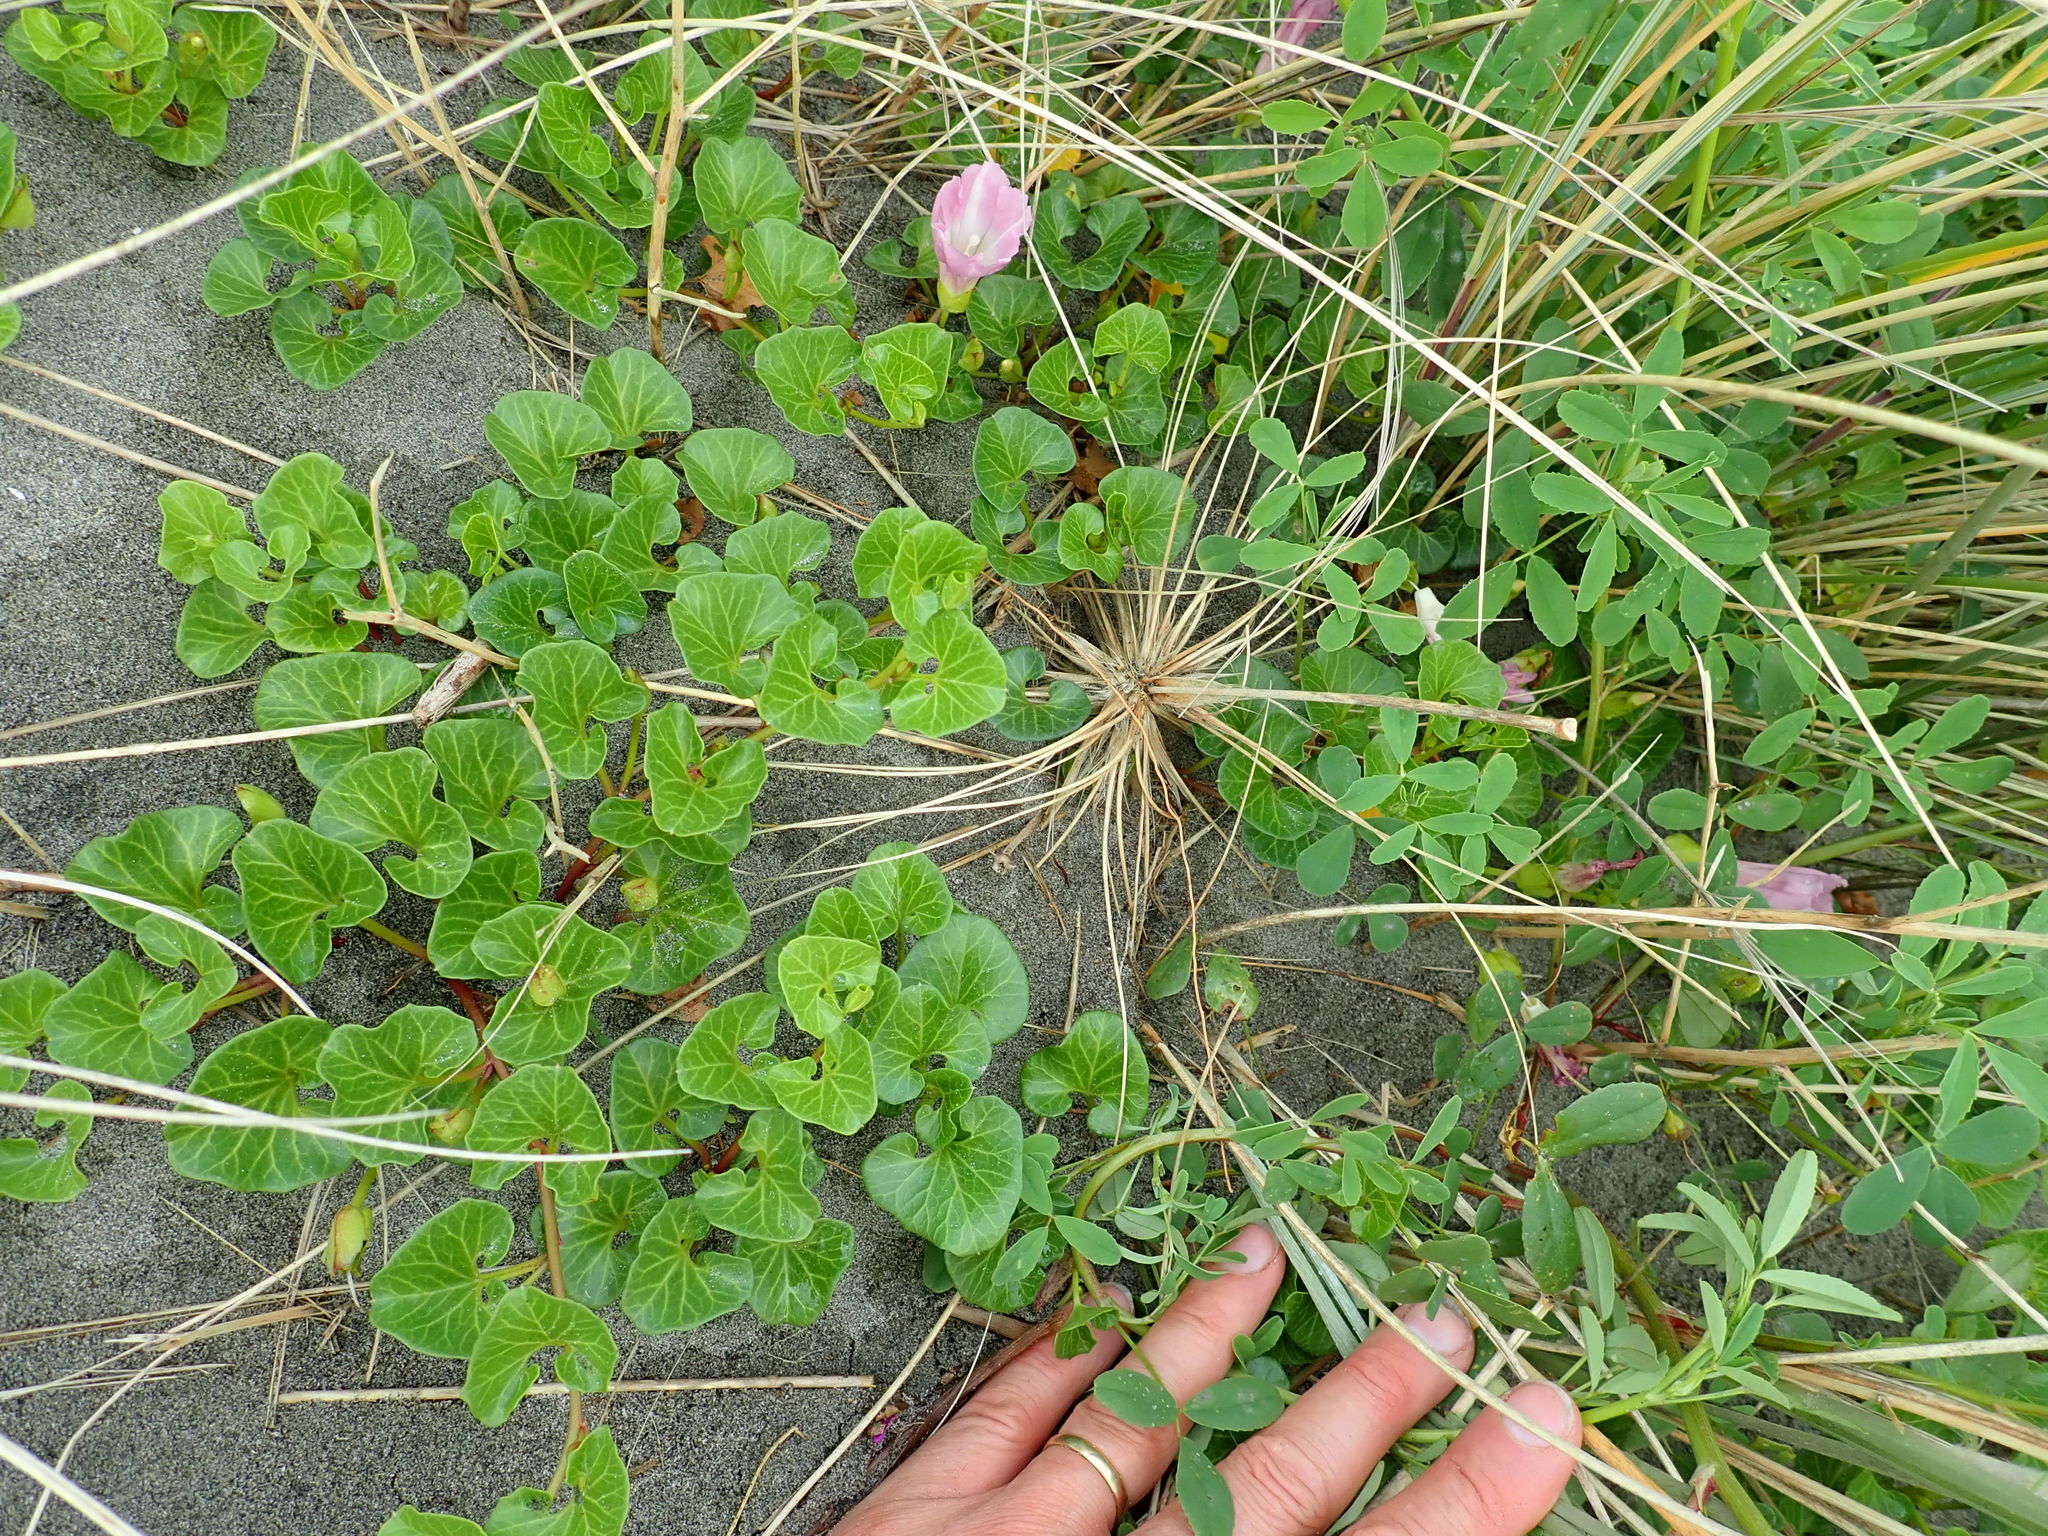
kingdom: Plantae
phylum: Tracheophyta
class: Magnoliopsida
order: Solanales
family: Convolvulaceae
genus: Calystegia
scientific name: Calystegia soldanella
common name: Sea bindweed
